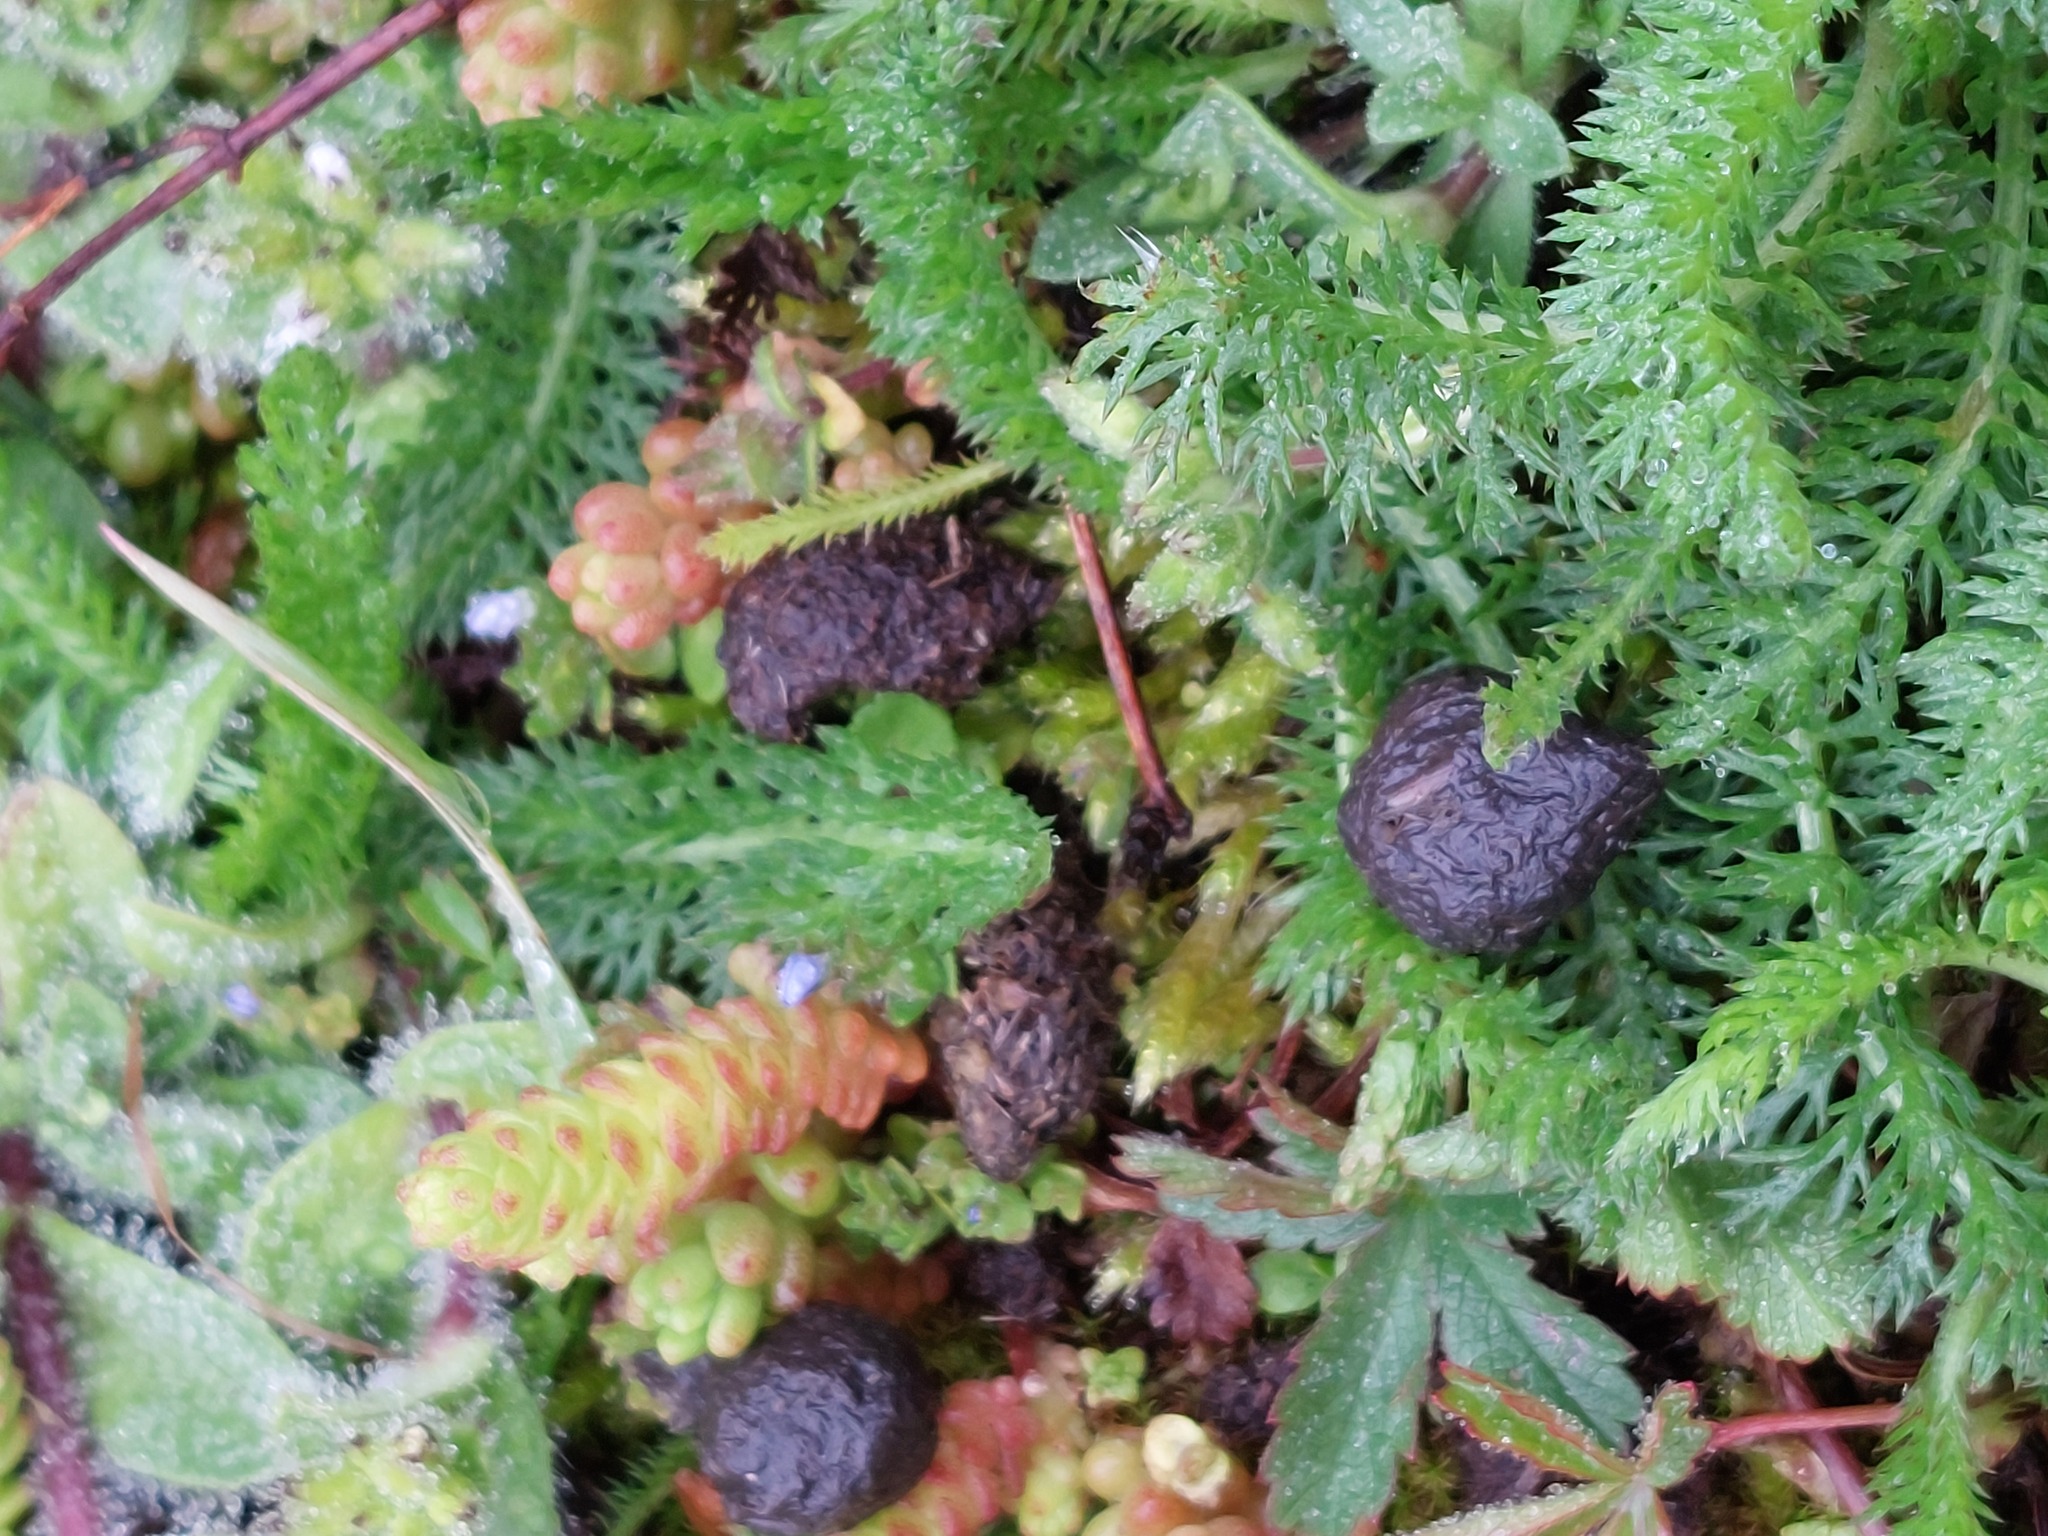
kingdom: Animalia
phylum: Chordata
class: Mammalia
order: Lagomorpha
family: Leporidae
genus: Oryctolagus
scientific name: Oryctolagus cuniculus
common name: European rabbit
